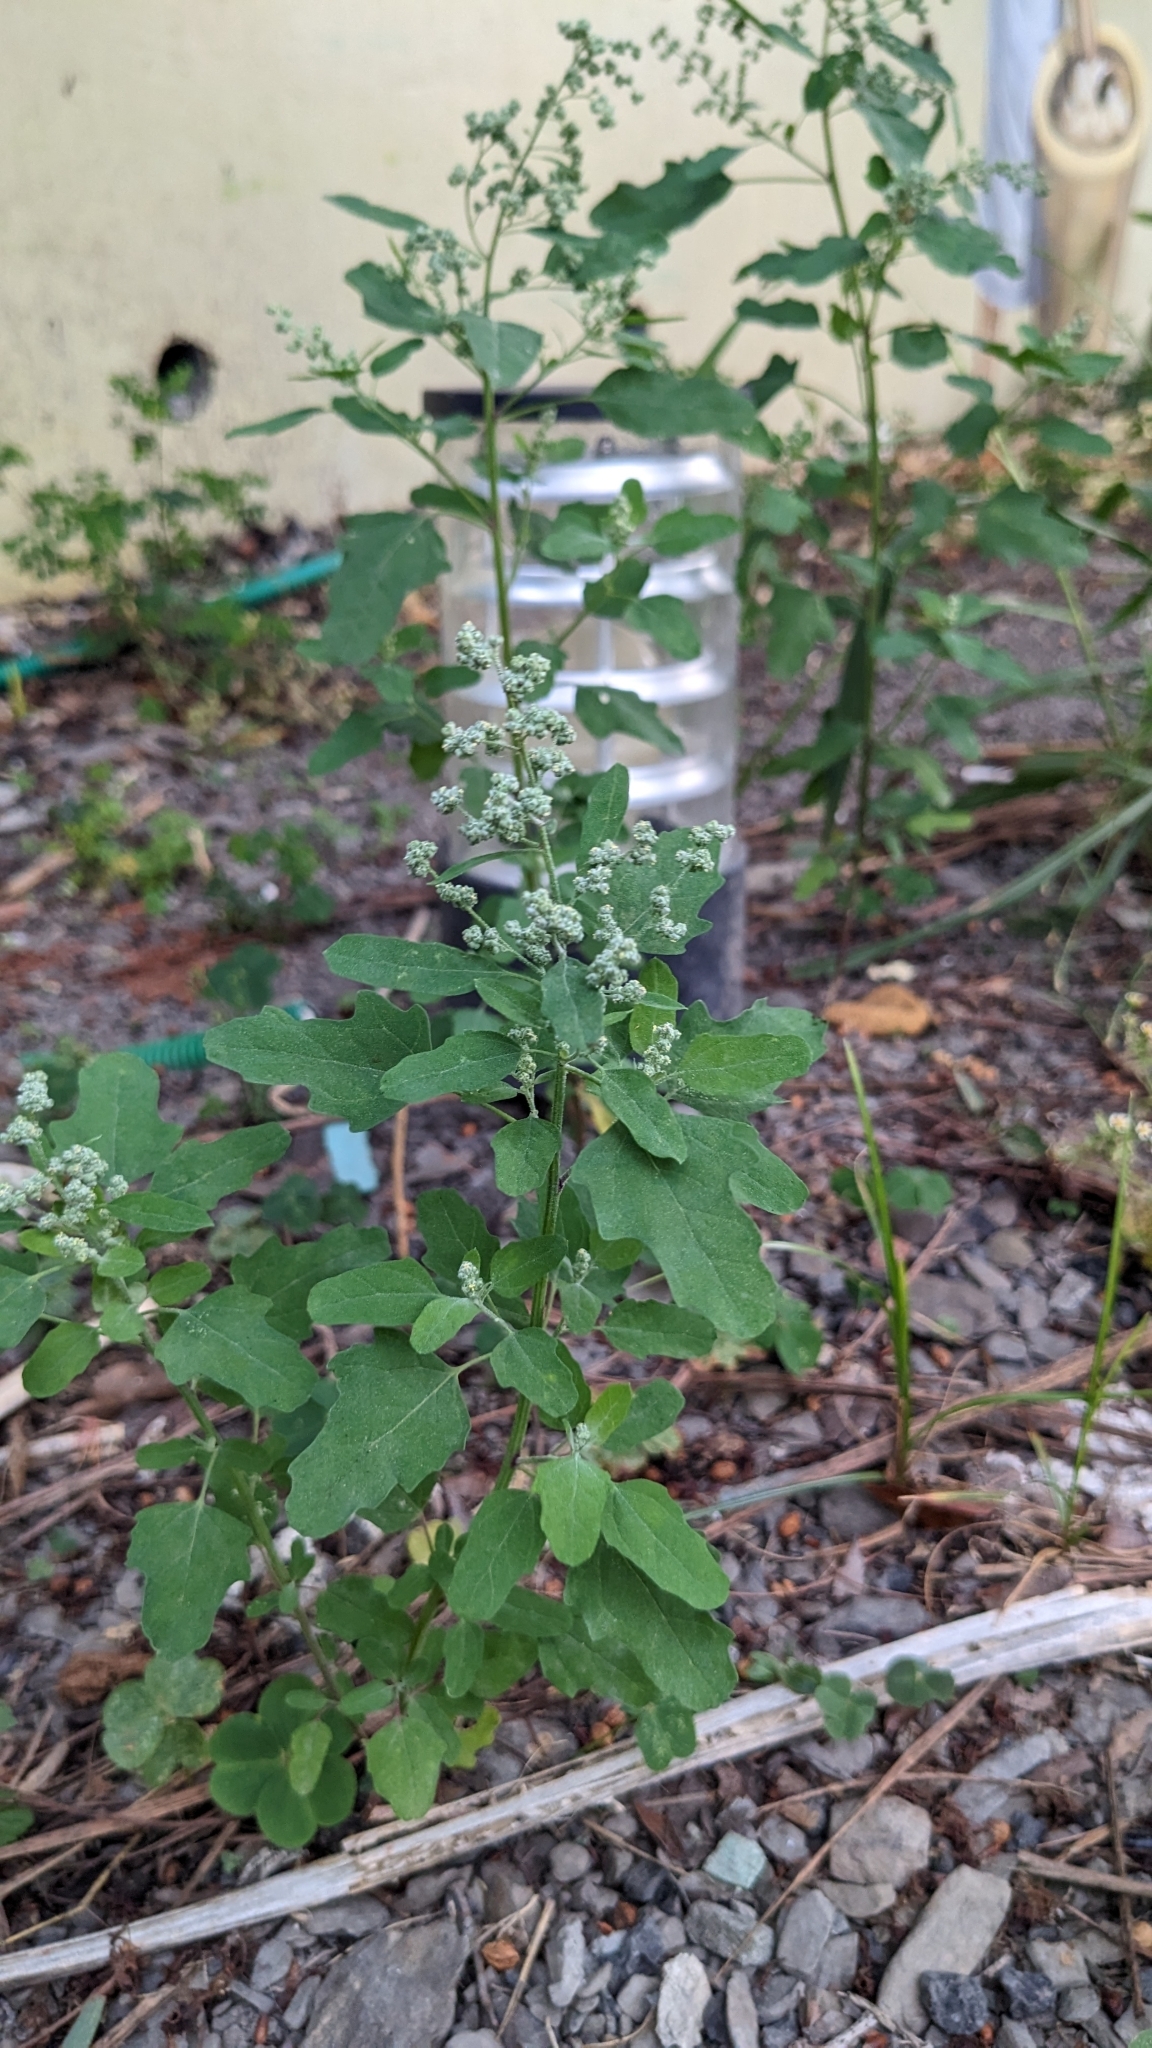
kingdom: Plantae
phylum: Tracheophyta
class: Magnoliopsida
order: Caryophyllales
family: Amaranthaceae
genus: Chenopodium
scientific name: Chenopodium ficifolium
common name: Fig-leaved goosefoot
